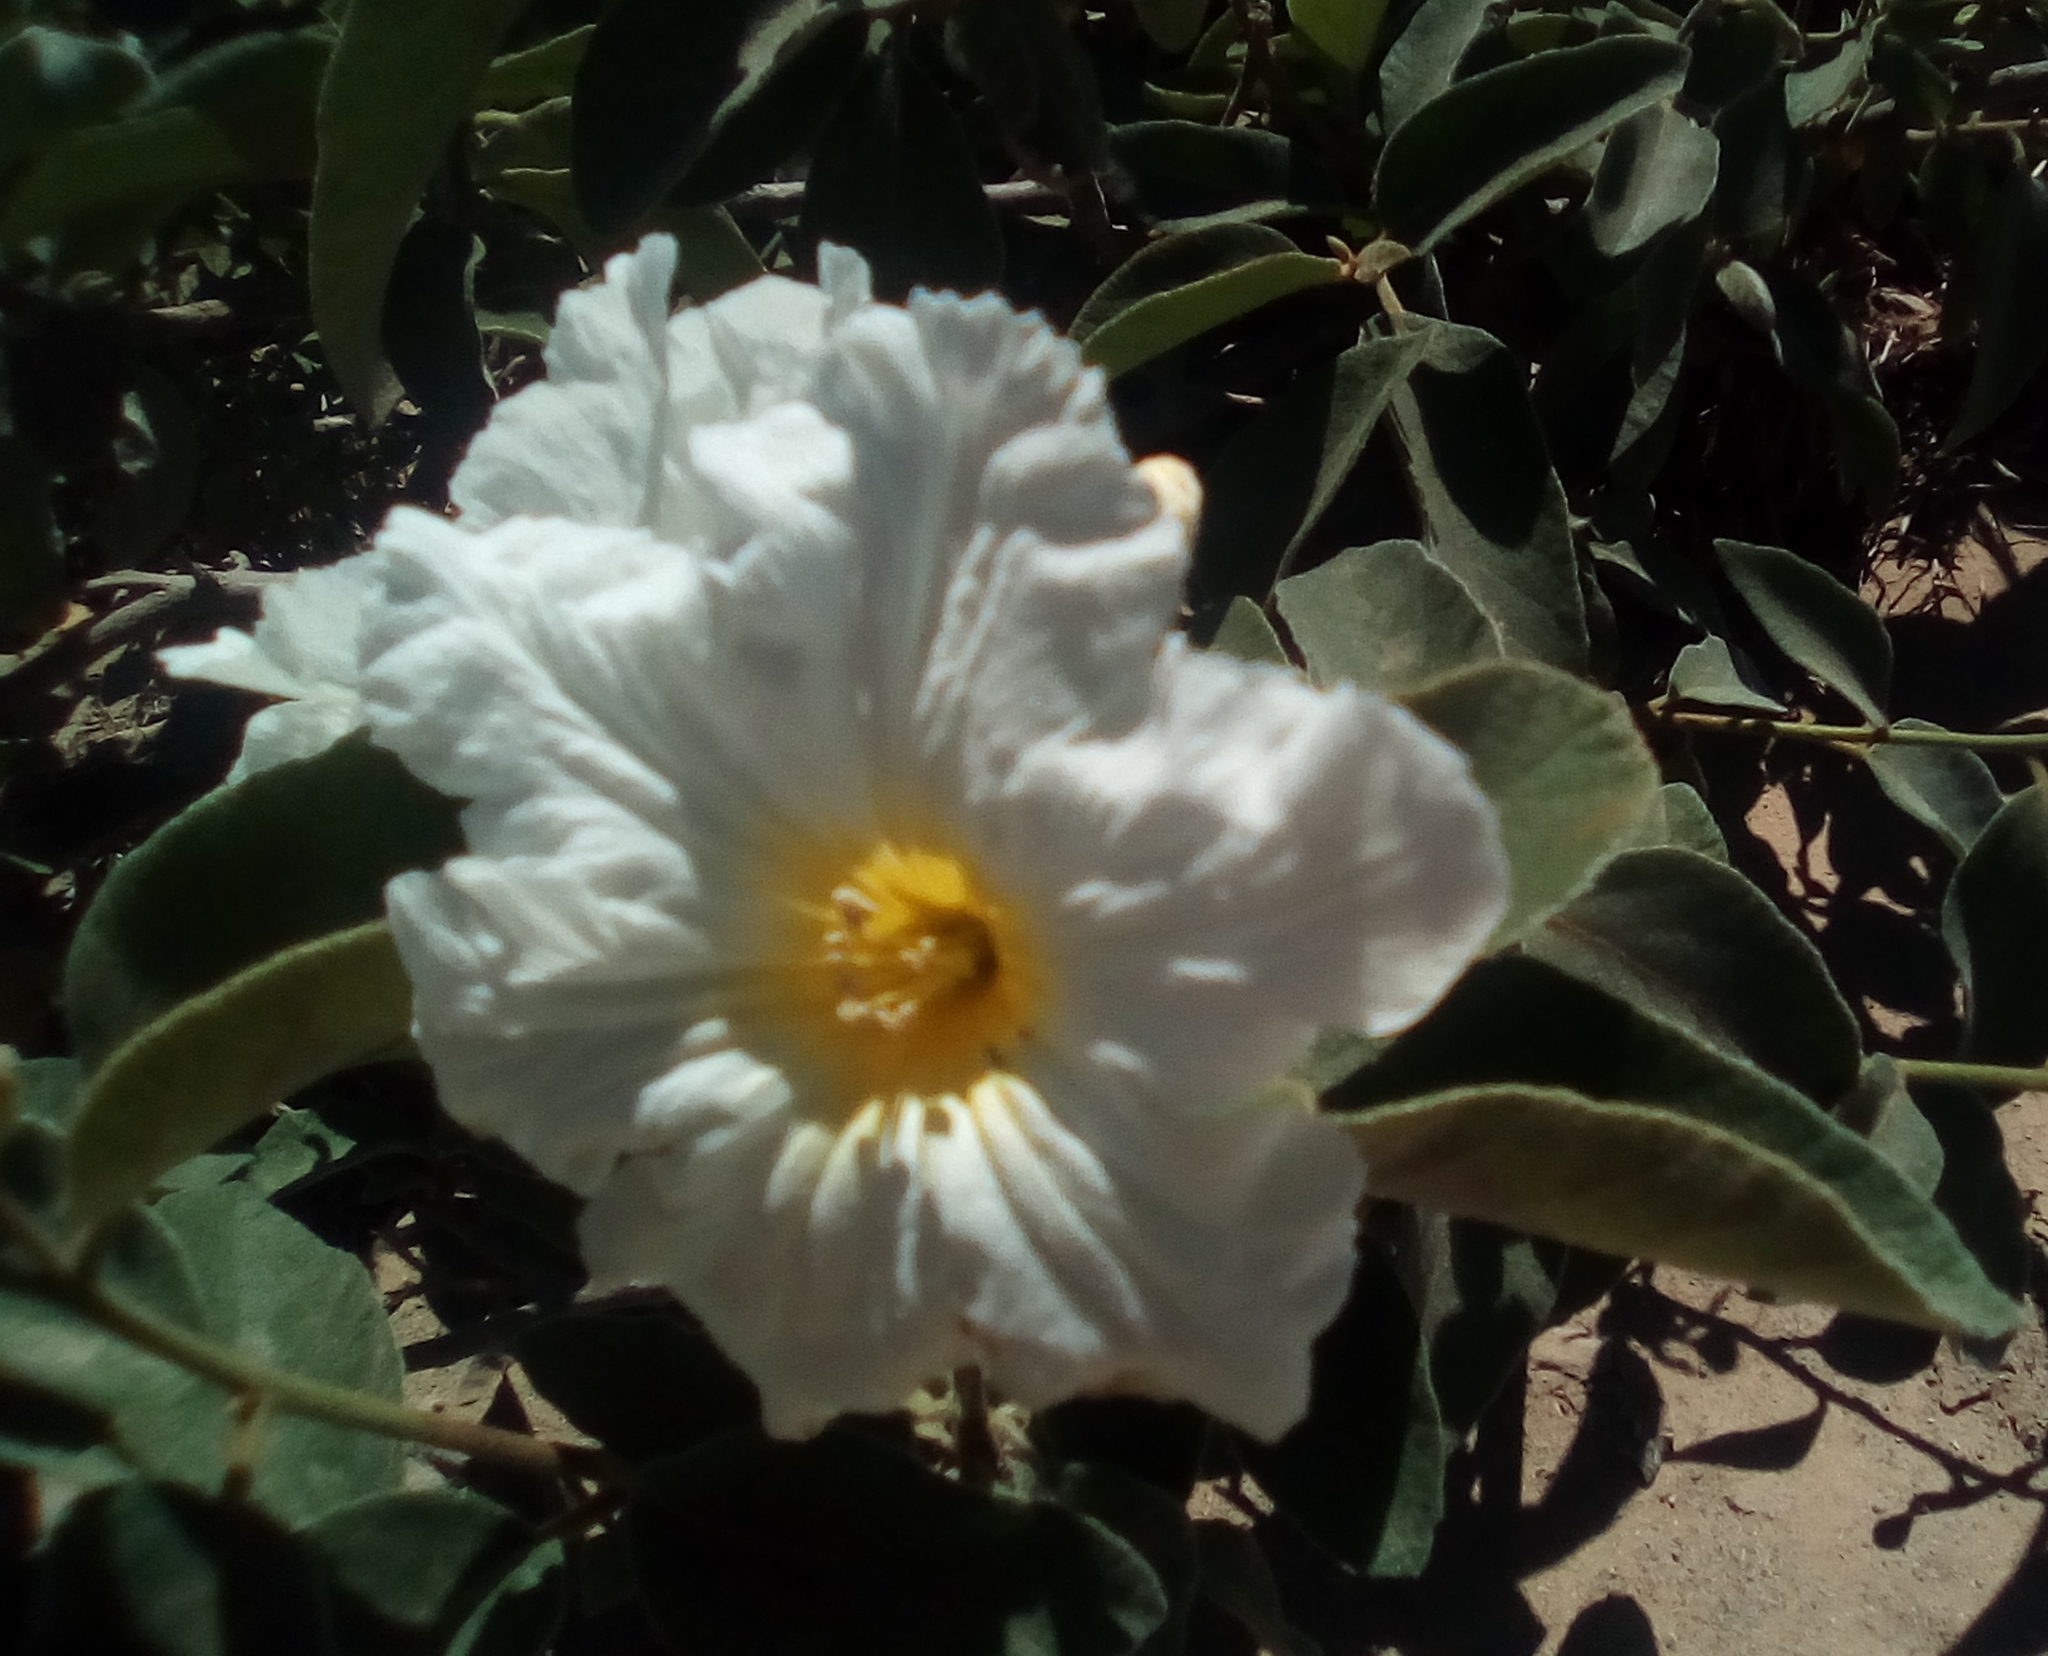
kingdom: Plantae
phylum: Tracheophyta
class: Magnoliopsida
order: Boraginales
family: Cordiaceae
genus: Cordia
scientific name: Cordia boissieri
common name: Mexican-olive
